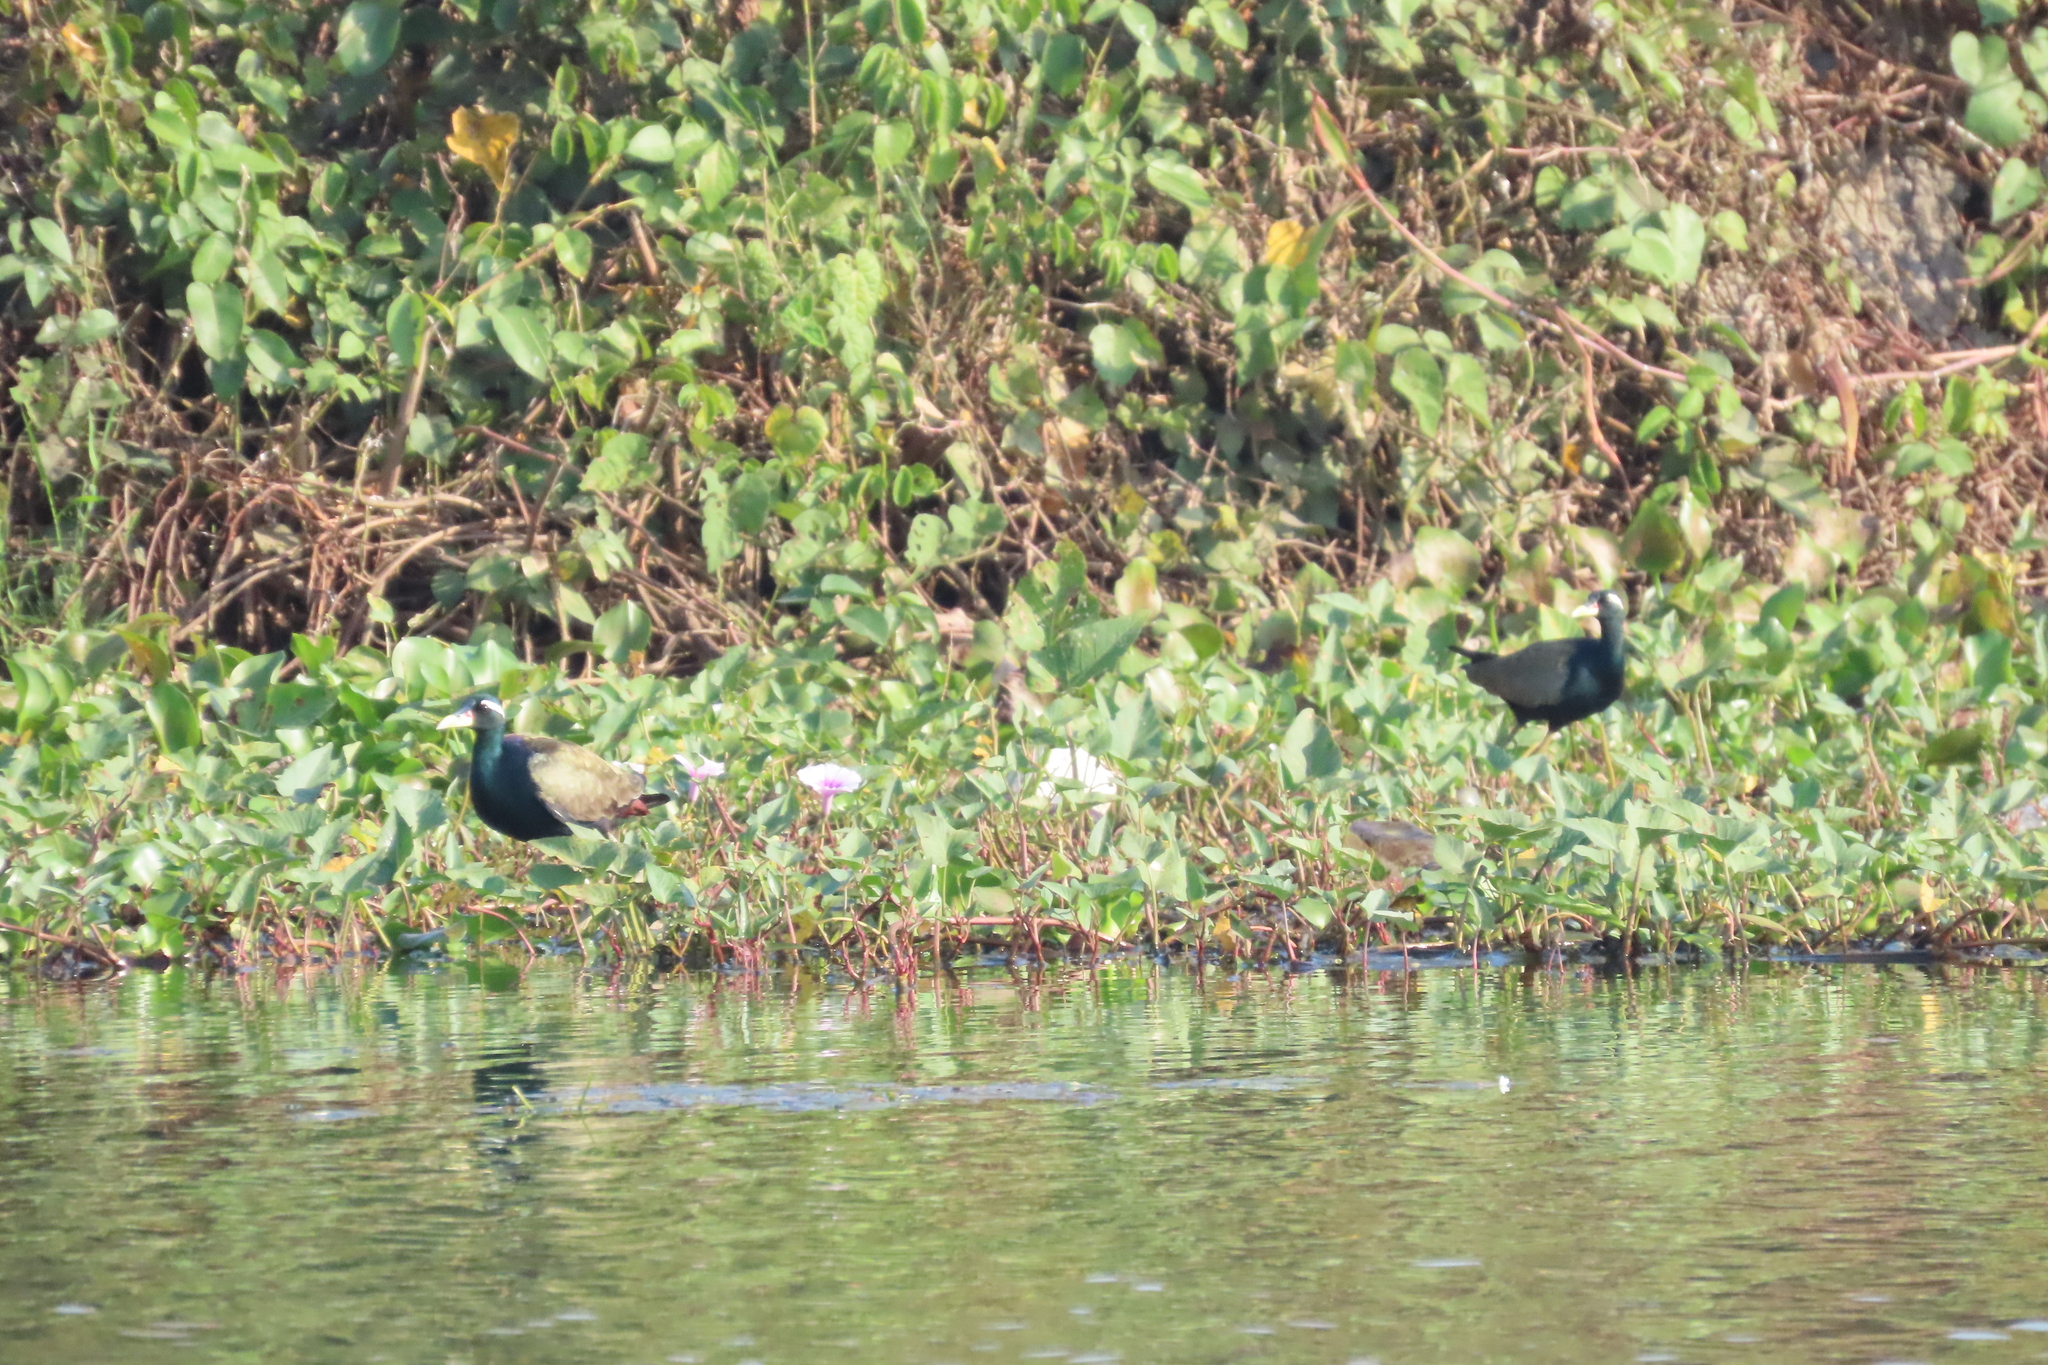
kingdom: Animalia
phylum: Chordata
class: Aves
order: Charadriiformes
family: Jacanidae
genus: Metopidius
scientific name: Metopidius indicus
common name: Bronze-winged jacana
